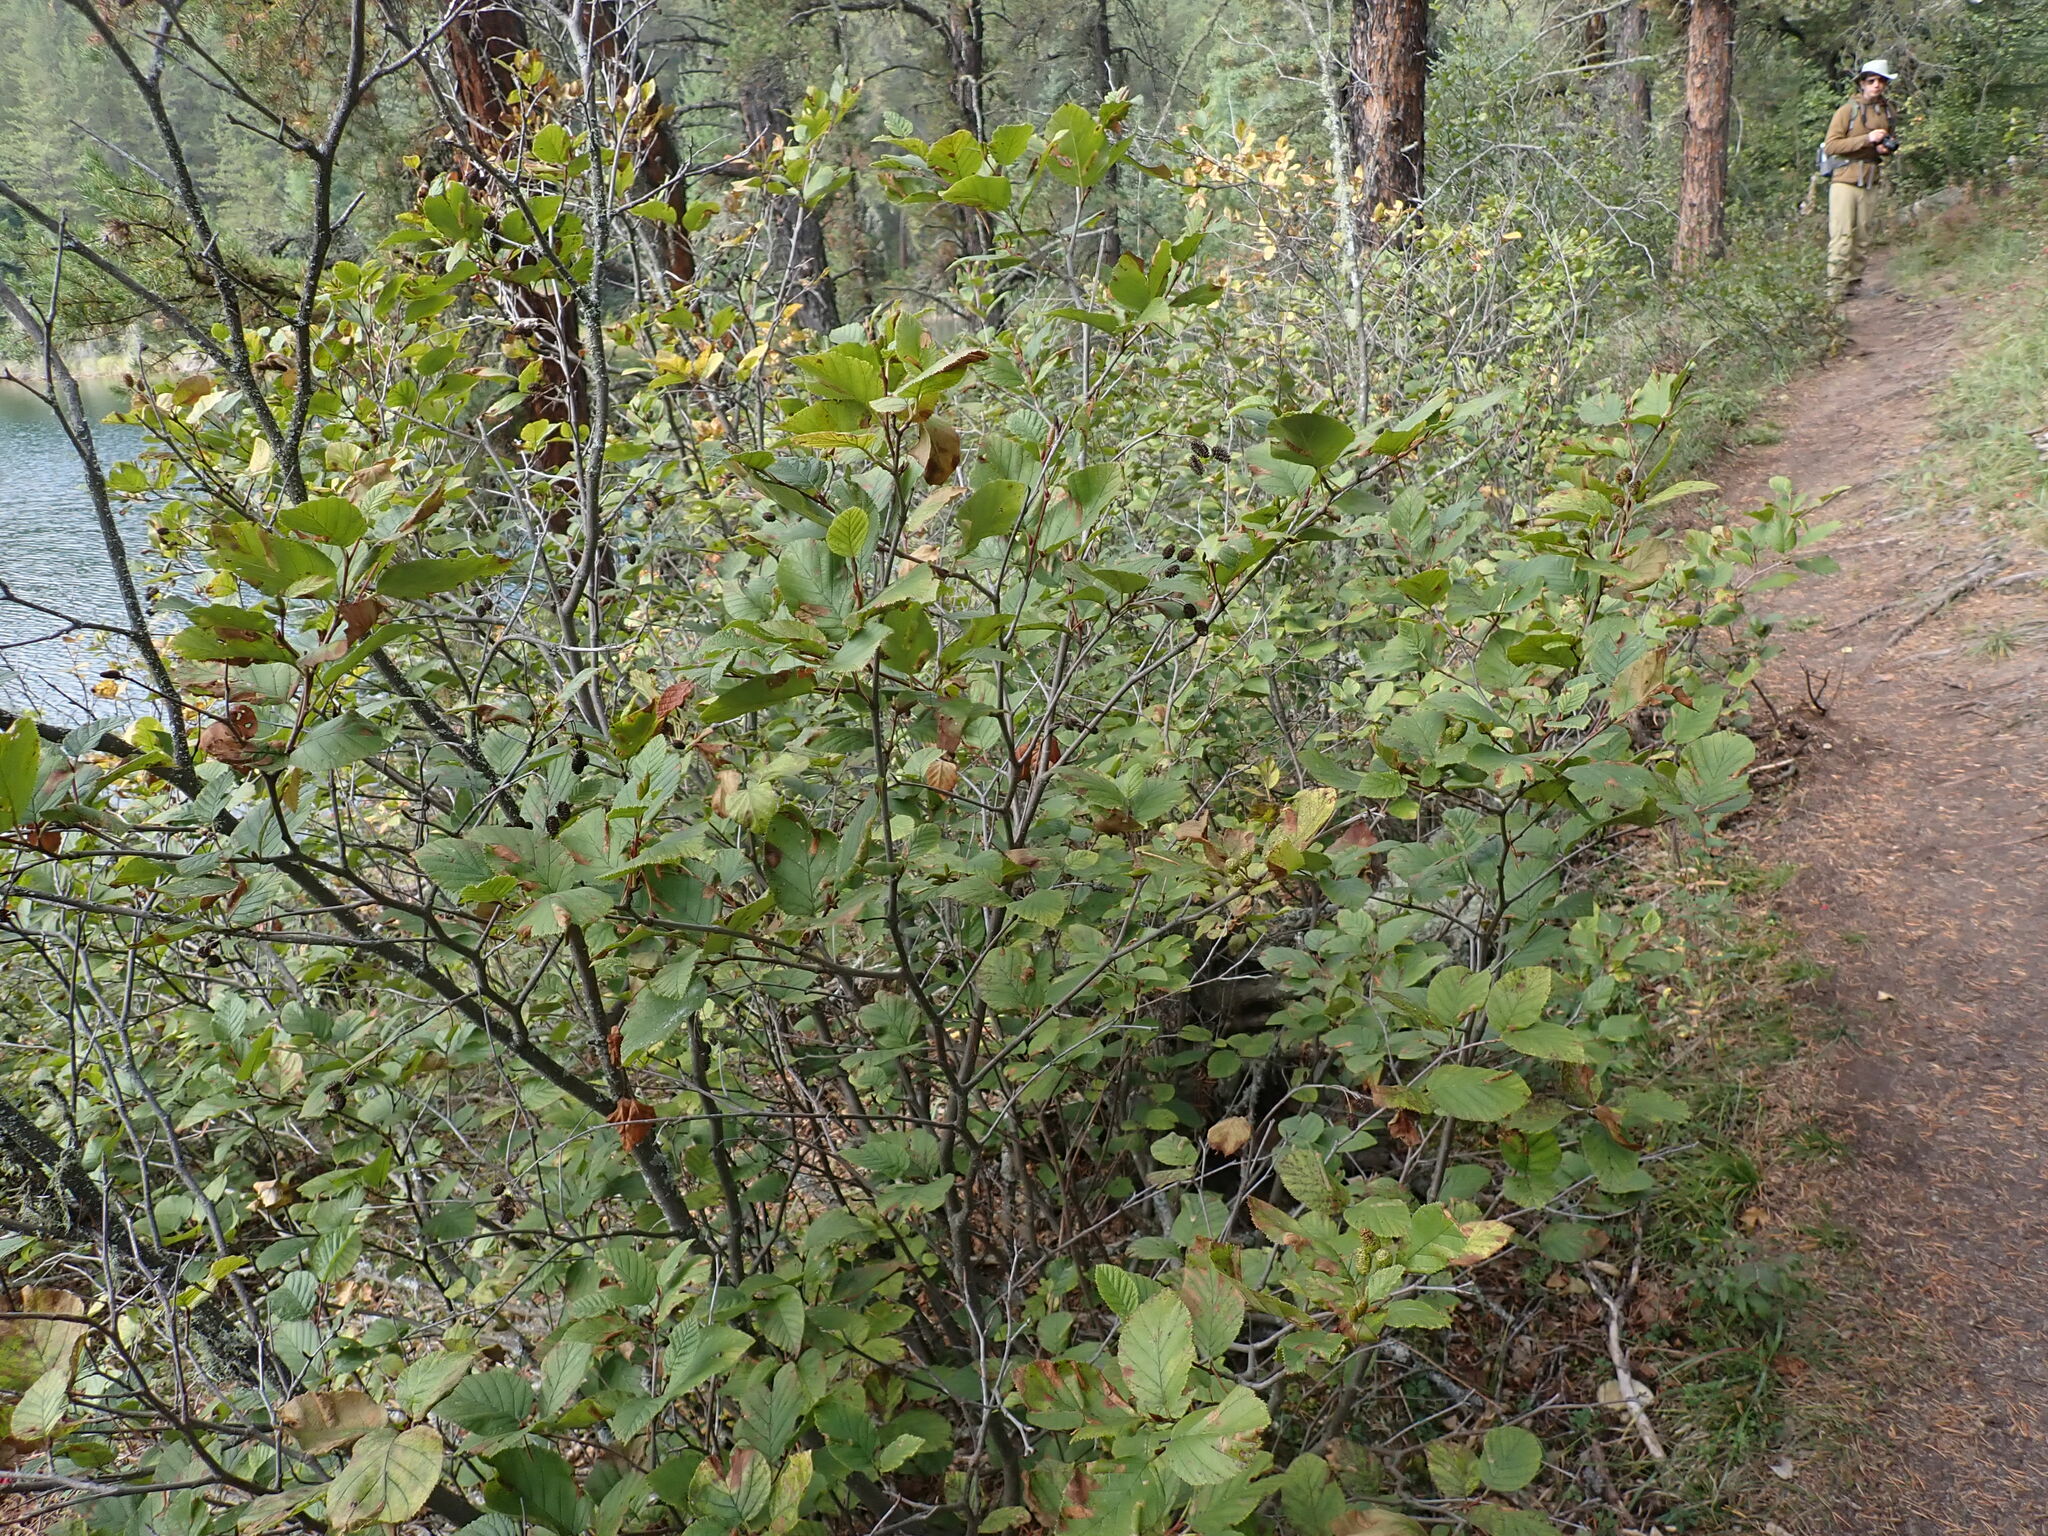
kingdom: Plantae
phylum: Tracheophyta
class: Magnoliopsida
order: Fagales
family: Betulaceae
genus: Alnus
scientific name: Alnus alnobetula
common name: Green alder
